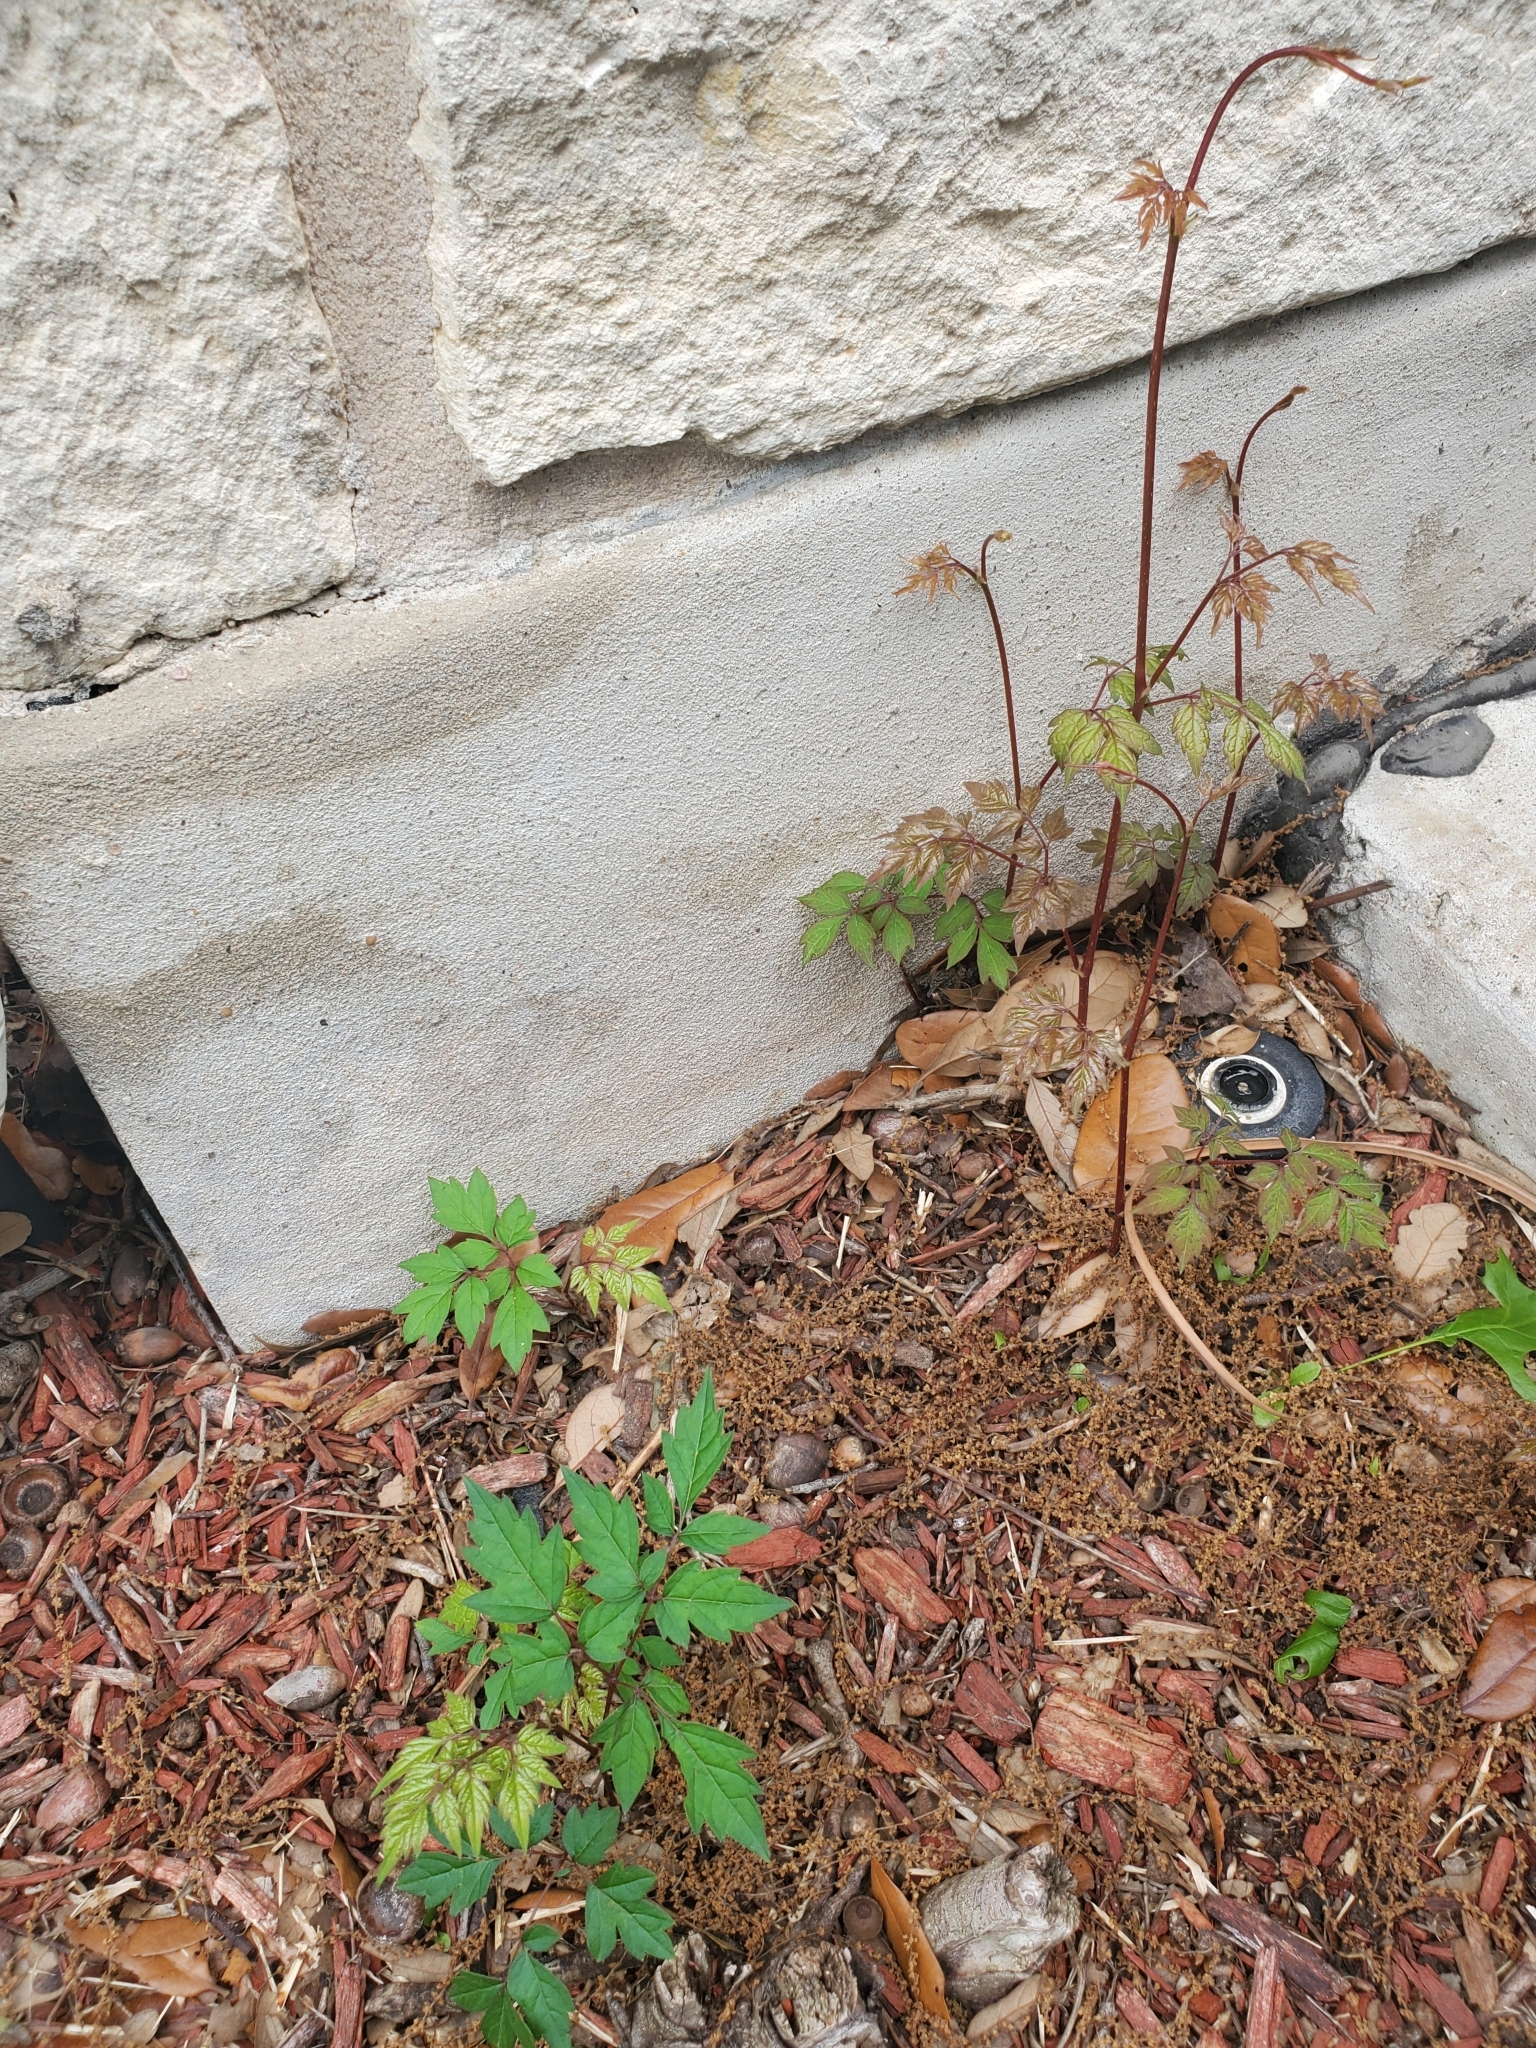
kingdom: Plantae
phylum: Tracheophyta
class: Magnoliopsida
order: Vitales
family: Vitaceae
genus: Nekemias
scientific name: Nekemias arborea
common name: Peppervine
